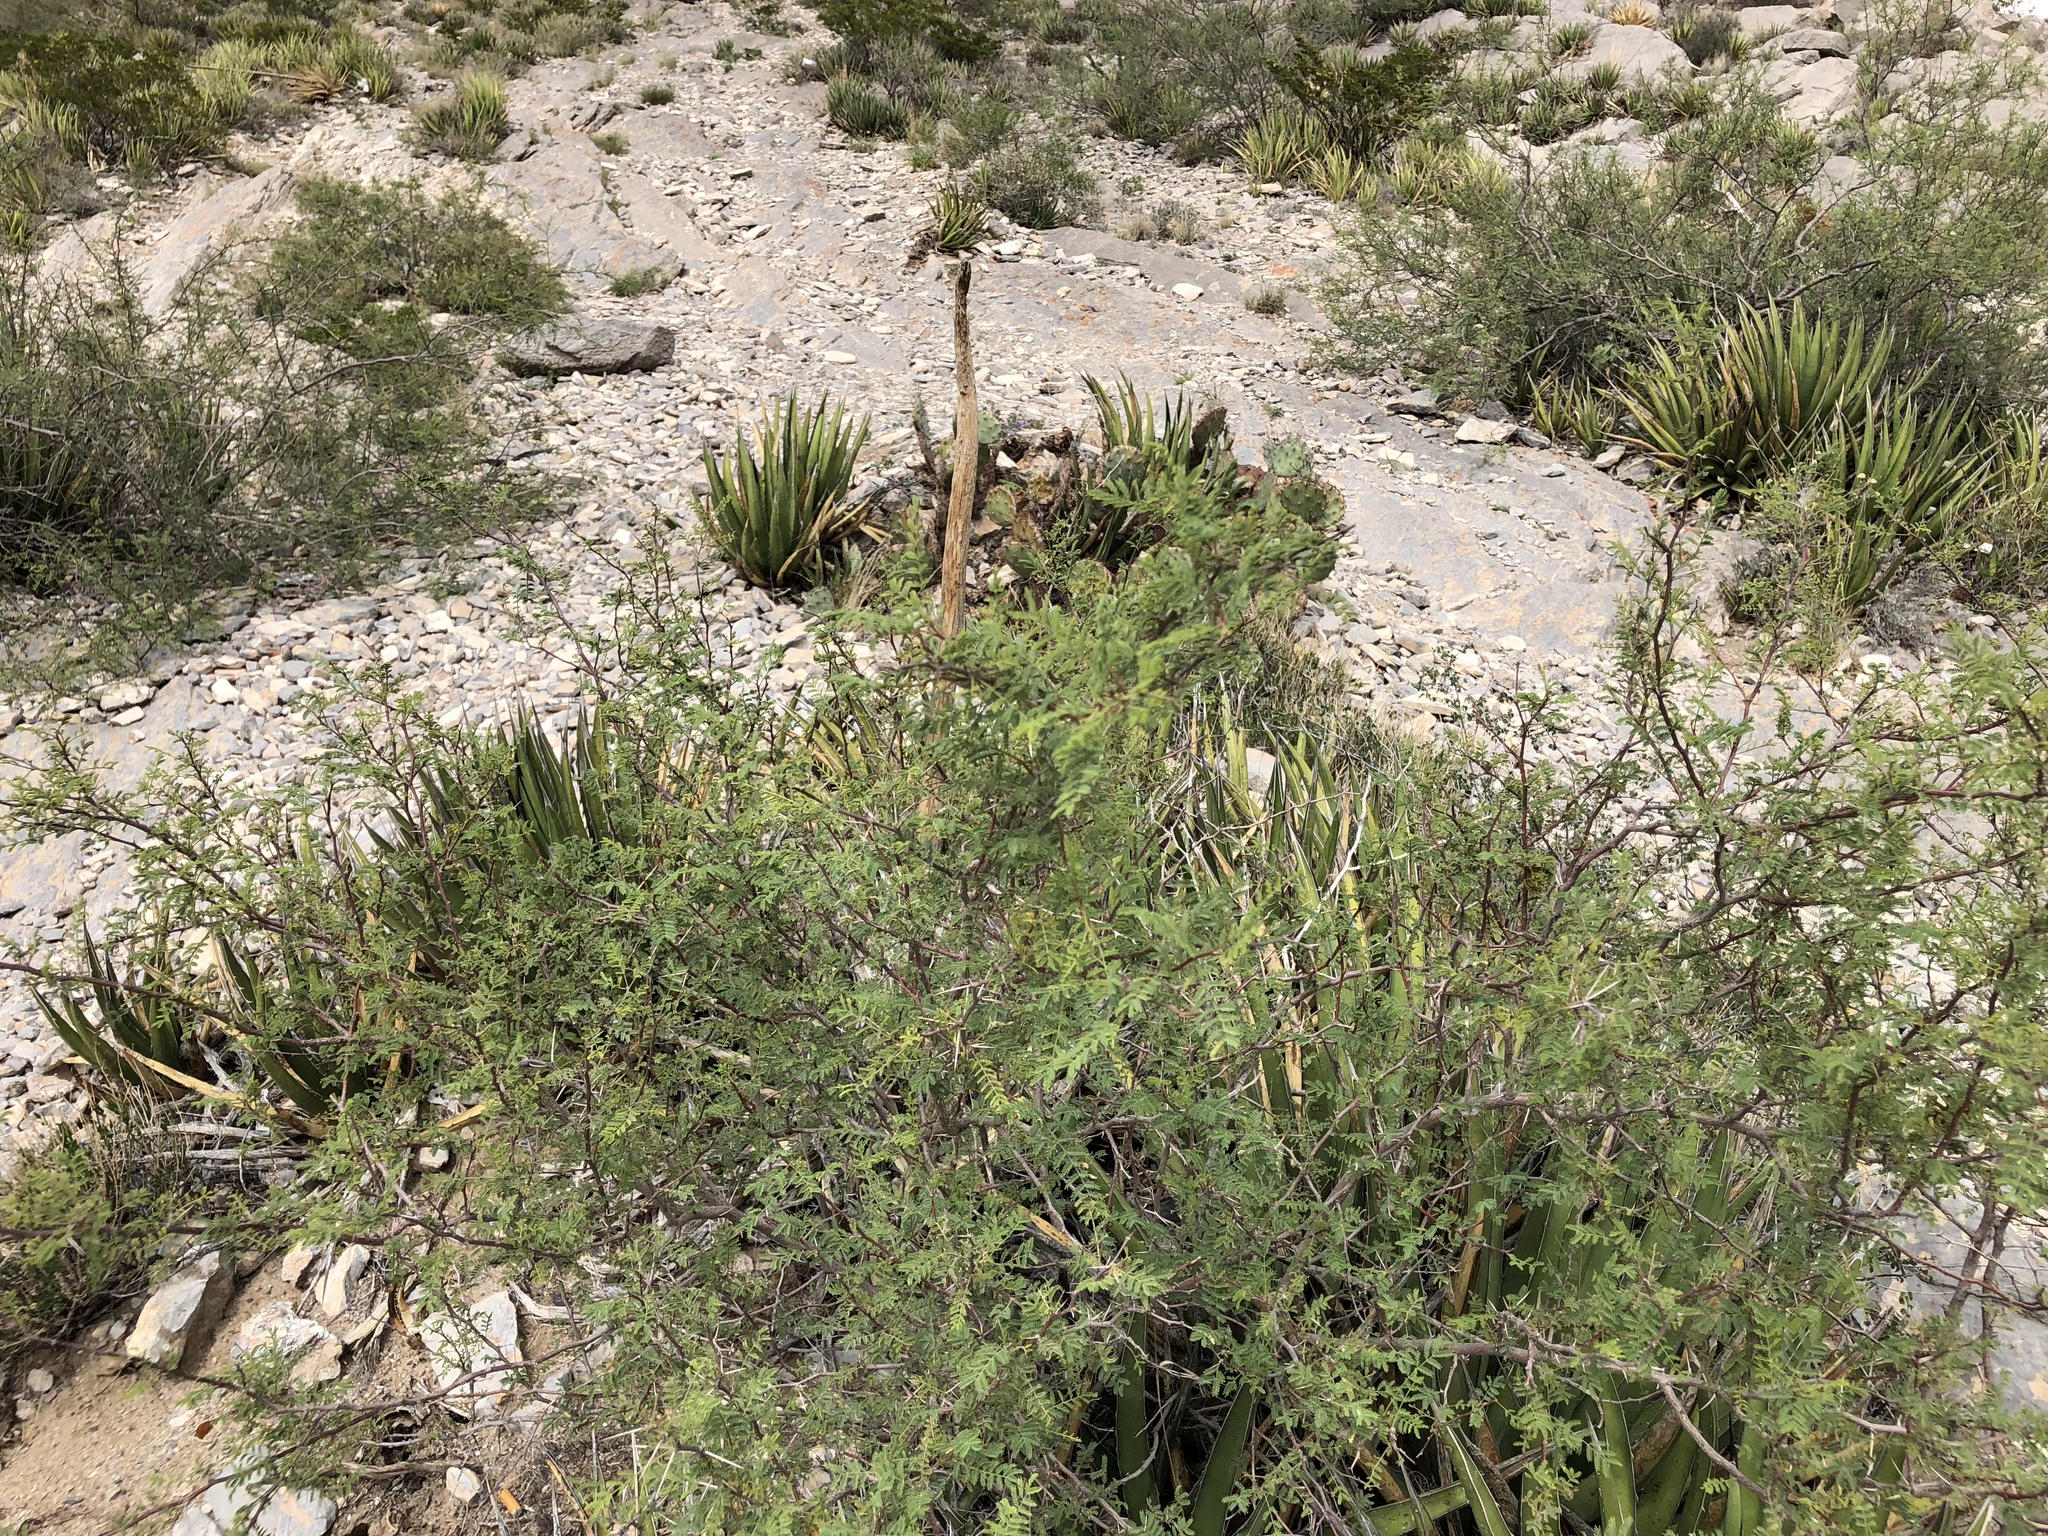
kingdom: Plantae
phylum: Tracheophyta
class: Magnoliopsida
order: Fabales
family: Fabaceae
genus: Vachellia
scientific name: Vachellia constricta
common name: Mescat acacia
